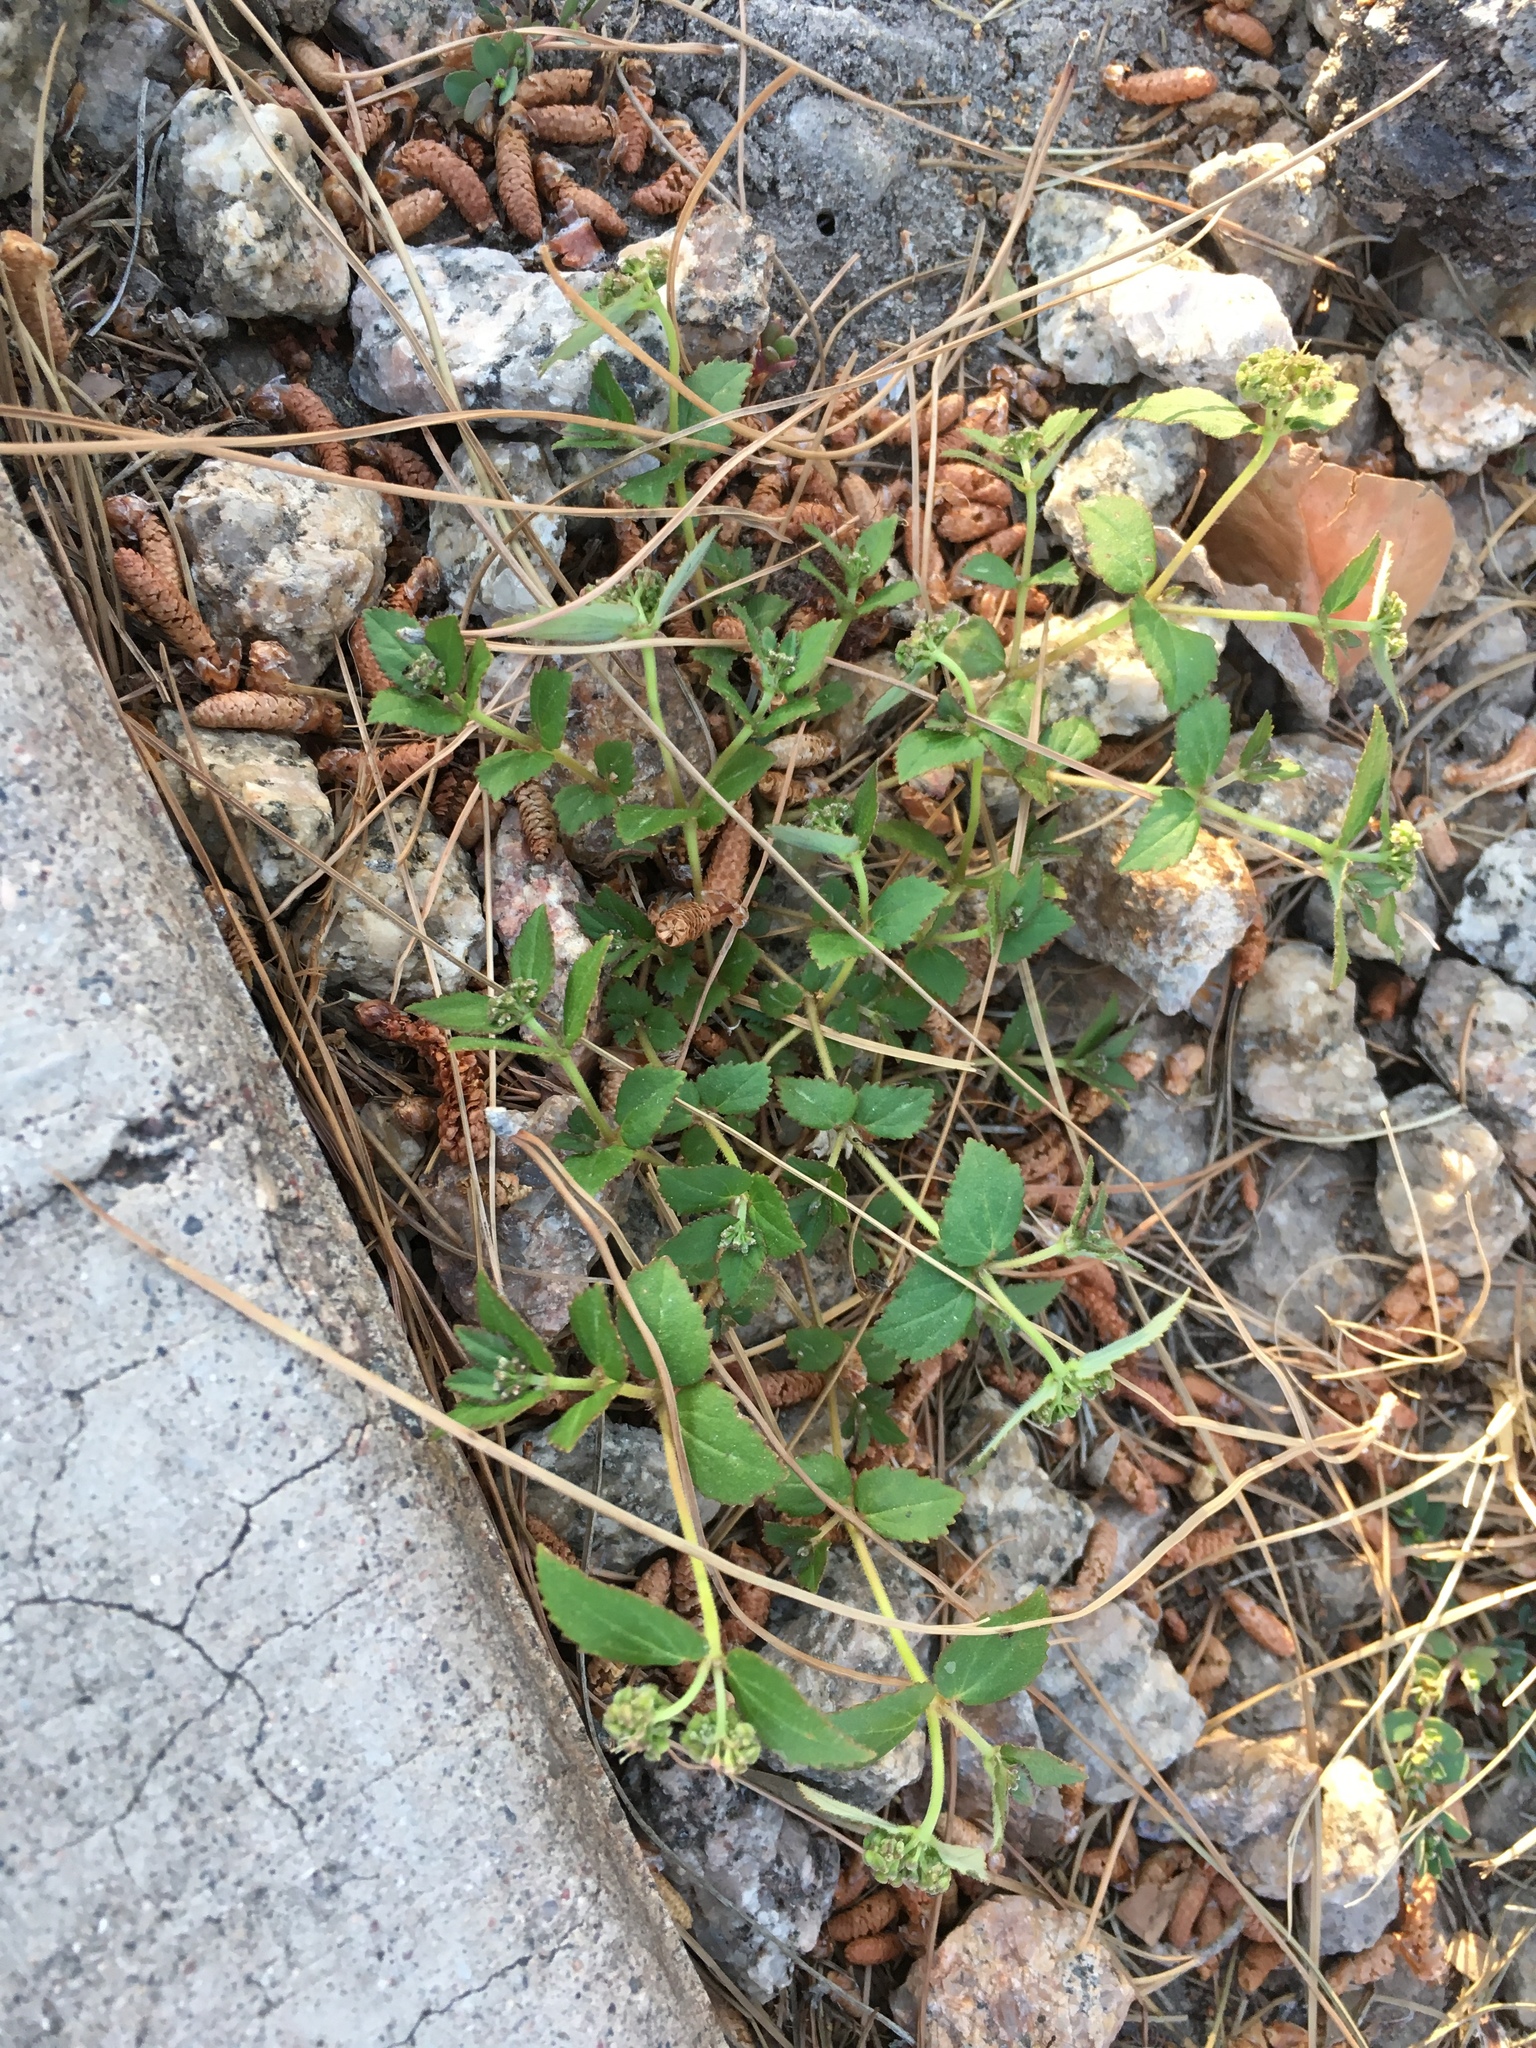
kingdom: Plantae
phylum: Tracheophyta
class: Magnoliopsida
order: Malpighiales
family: Euphorbiaceae
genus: Euphorbia
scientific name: Euphorbia ophthalmica
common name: Florida hammock sandmat
